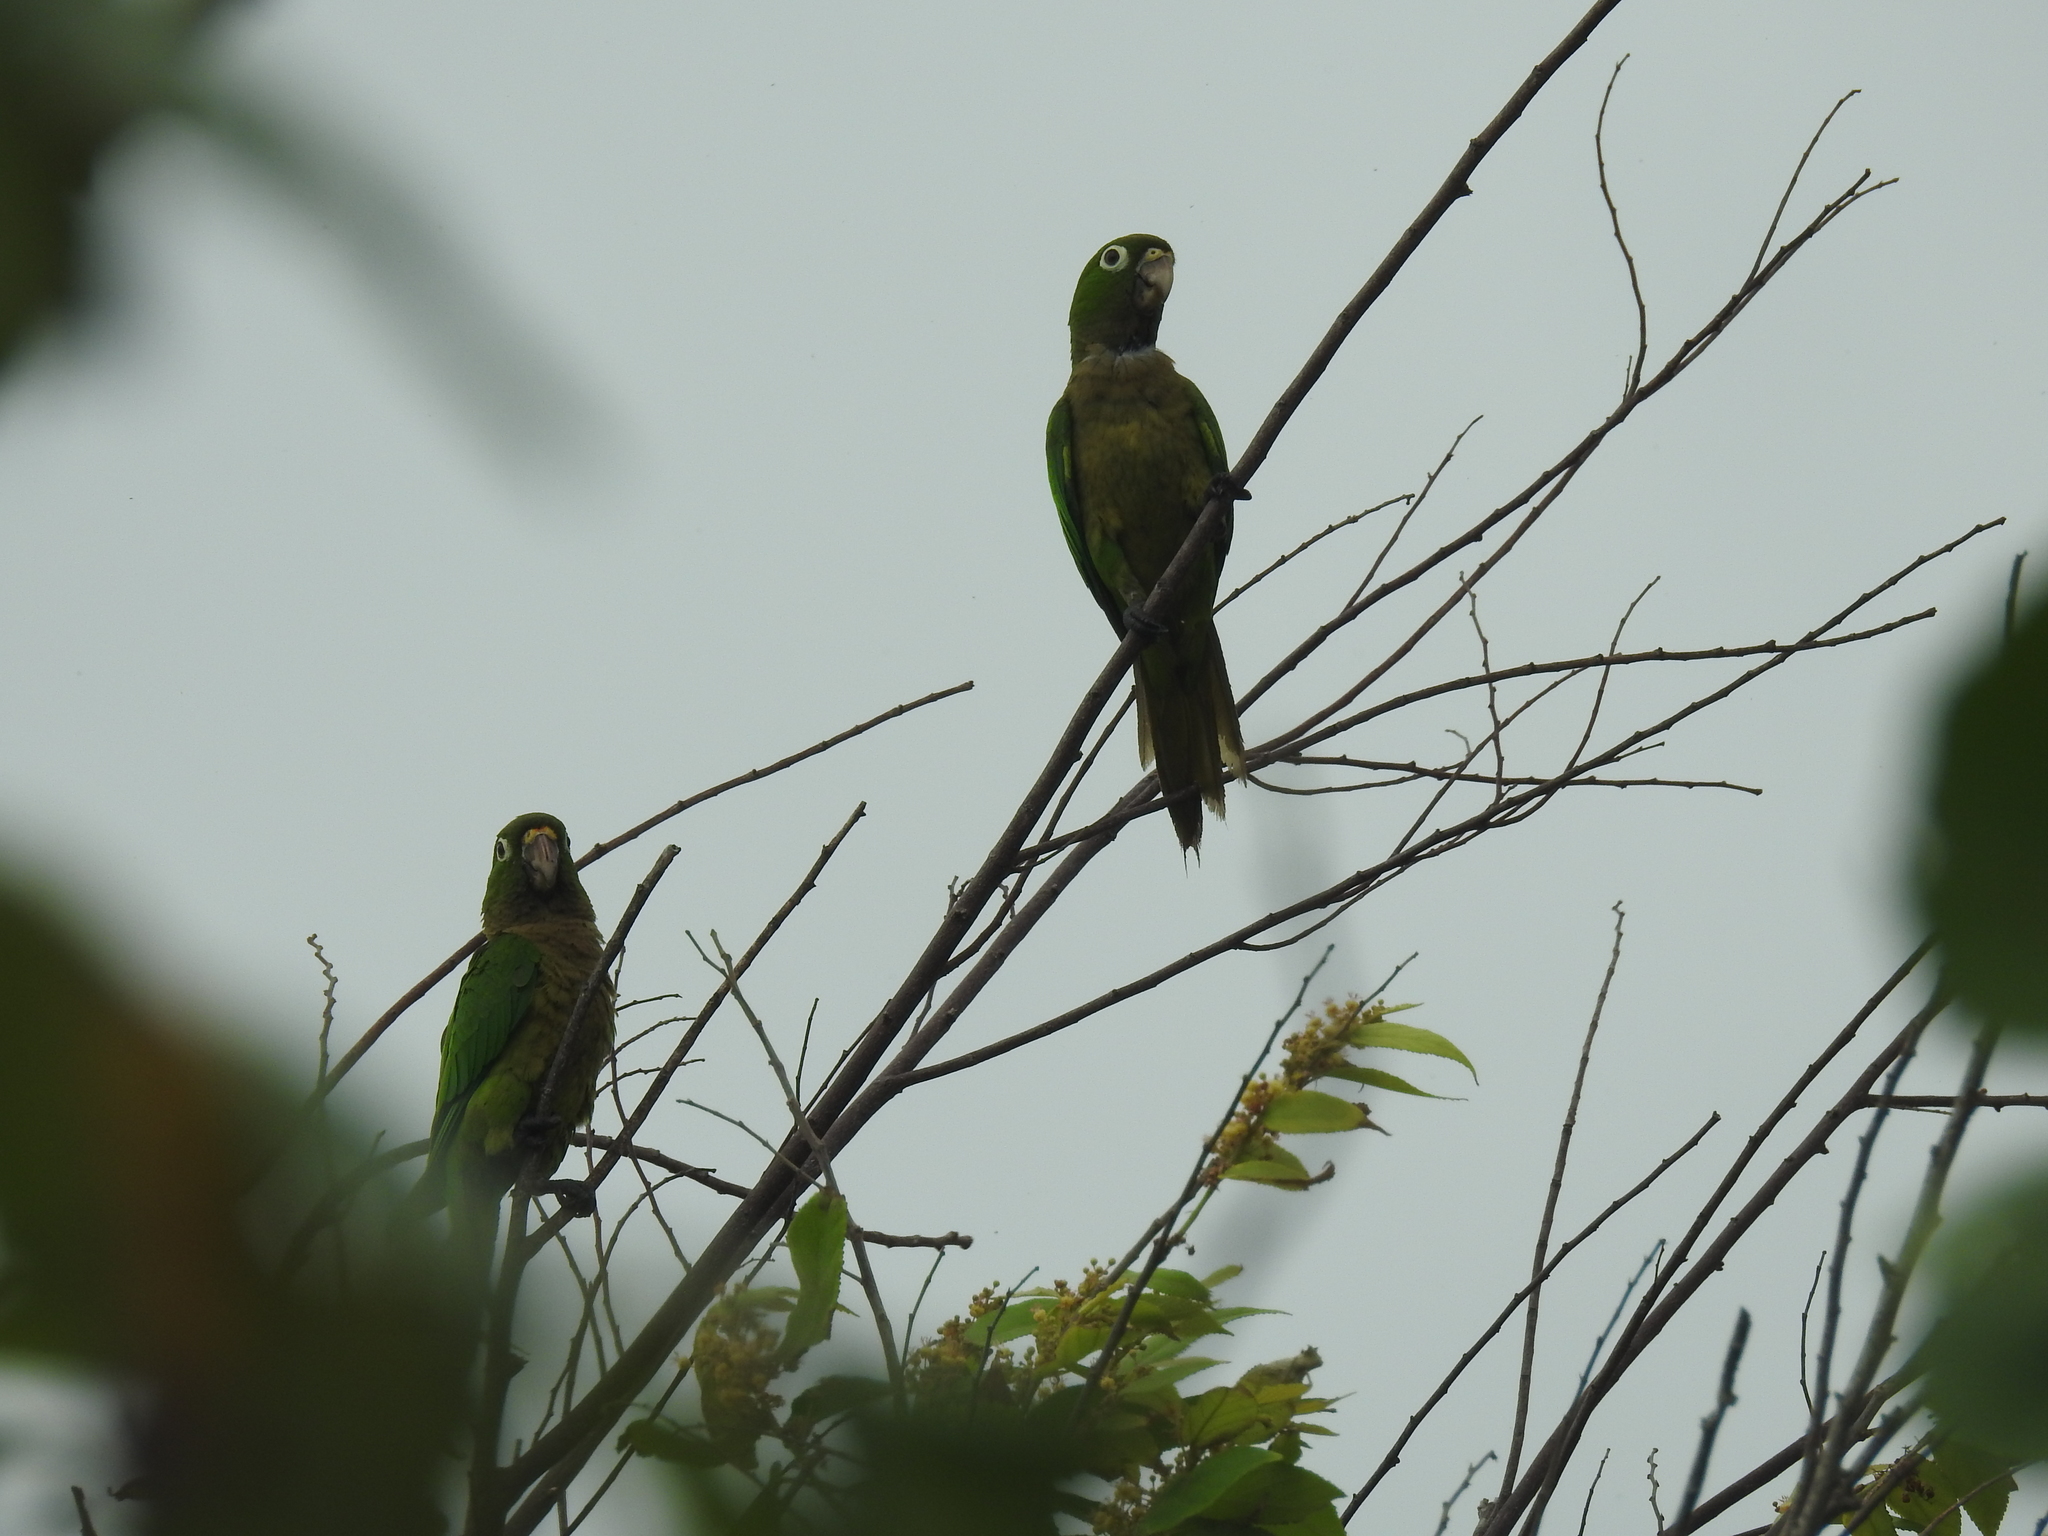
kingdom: Animalia
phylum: Chordata
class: Aves
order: Psittaciformes
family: Psittacidae
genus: Aratinga
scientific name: Aratinga nana
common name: Olive-throated parakeet
